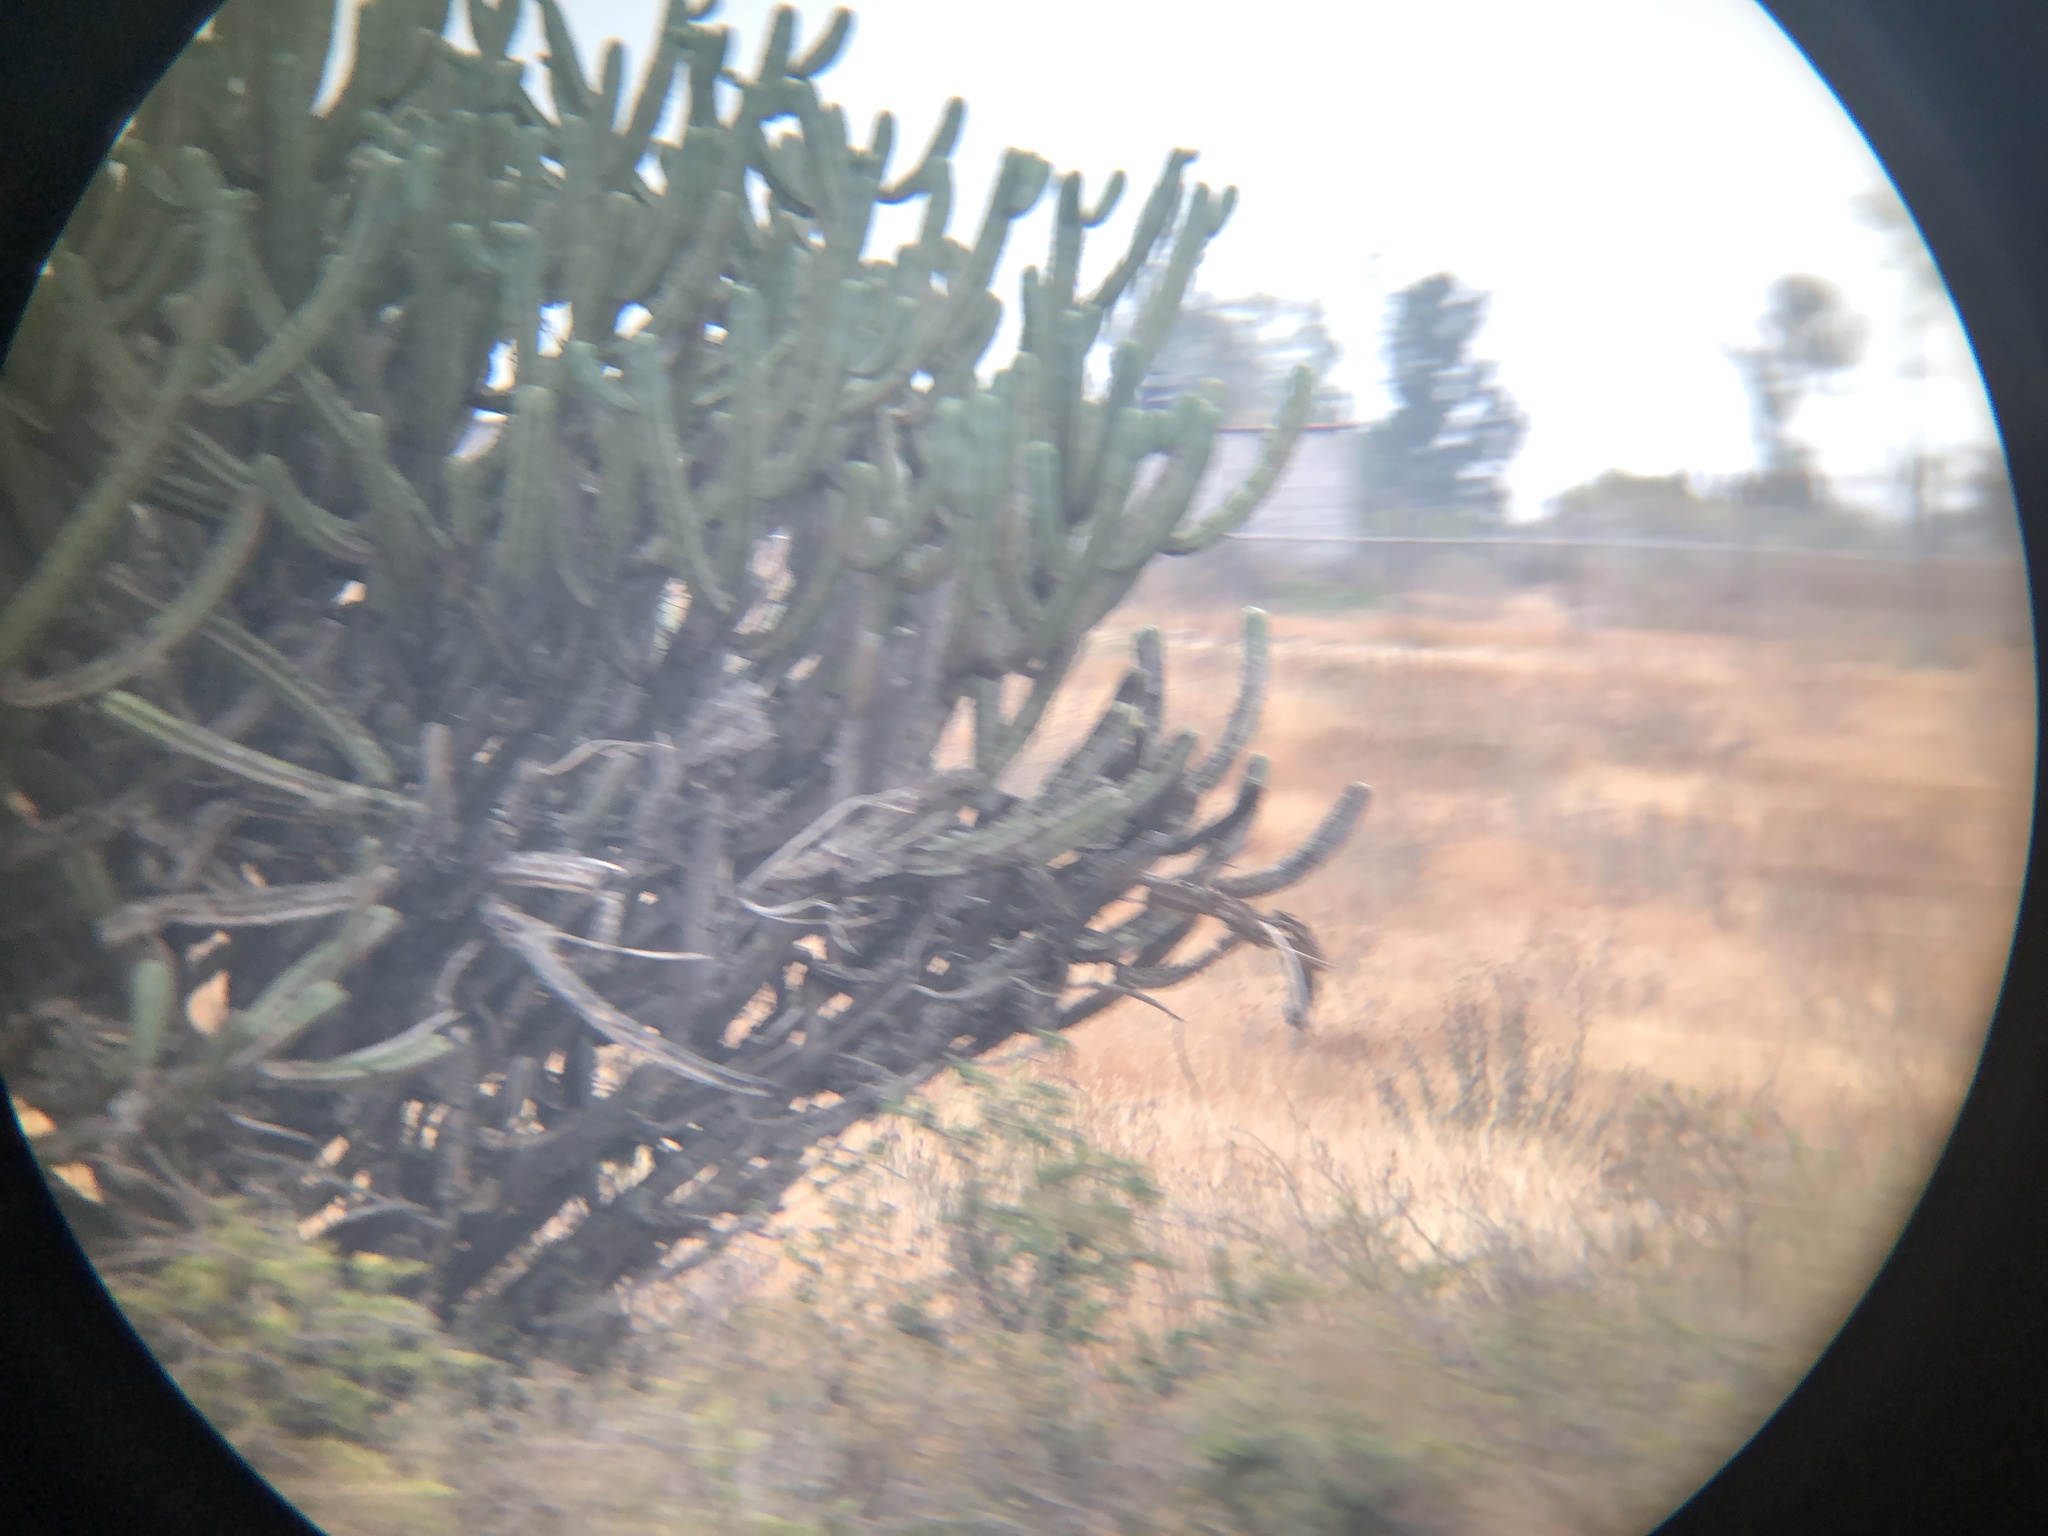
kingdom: Plantae
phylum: Tracheophyta
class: Magnoliopsida
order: Caryophyllales
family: Cactaceae
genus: Myrtillocactus
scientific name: Myrtillocactus geometrizans
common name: Bilberry cactus
